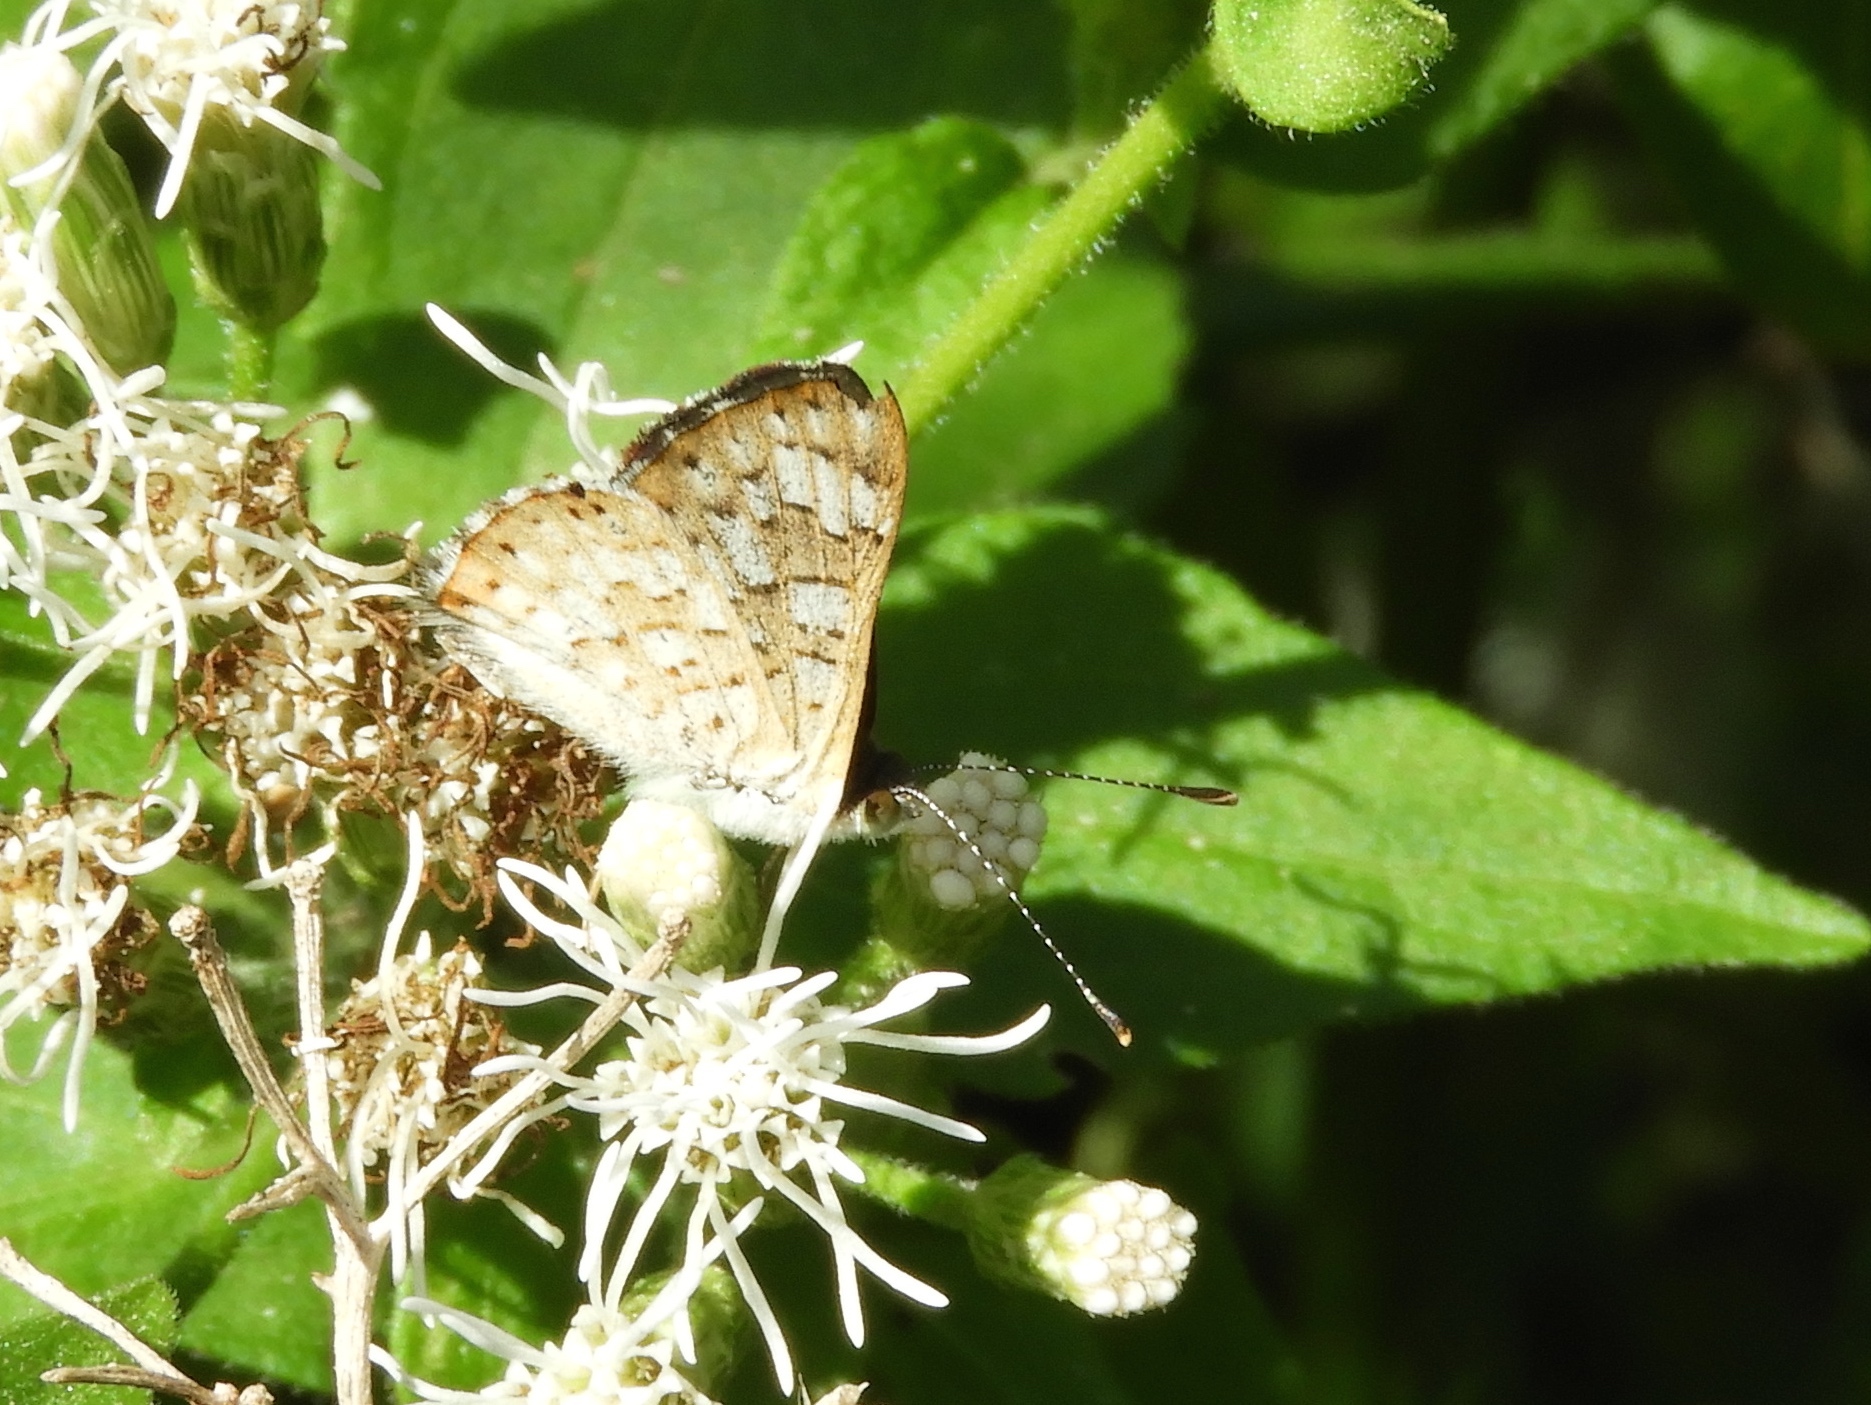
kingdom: Animalia
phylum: Arthropoda
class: Insecta
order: Hymenoptera
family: Braconidae
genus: Apodesmia
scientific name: Apodesmia
